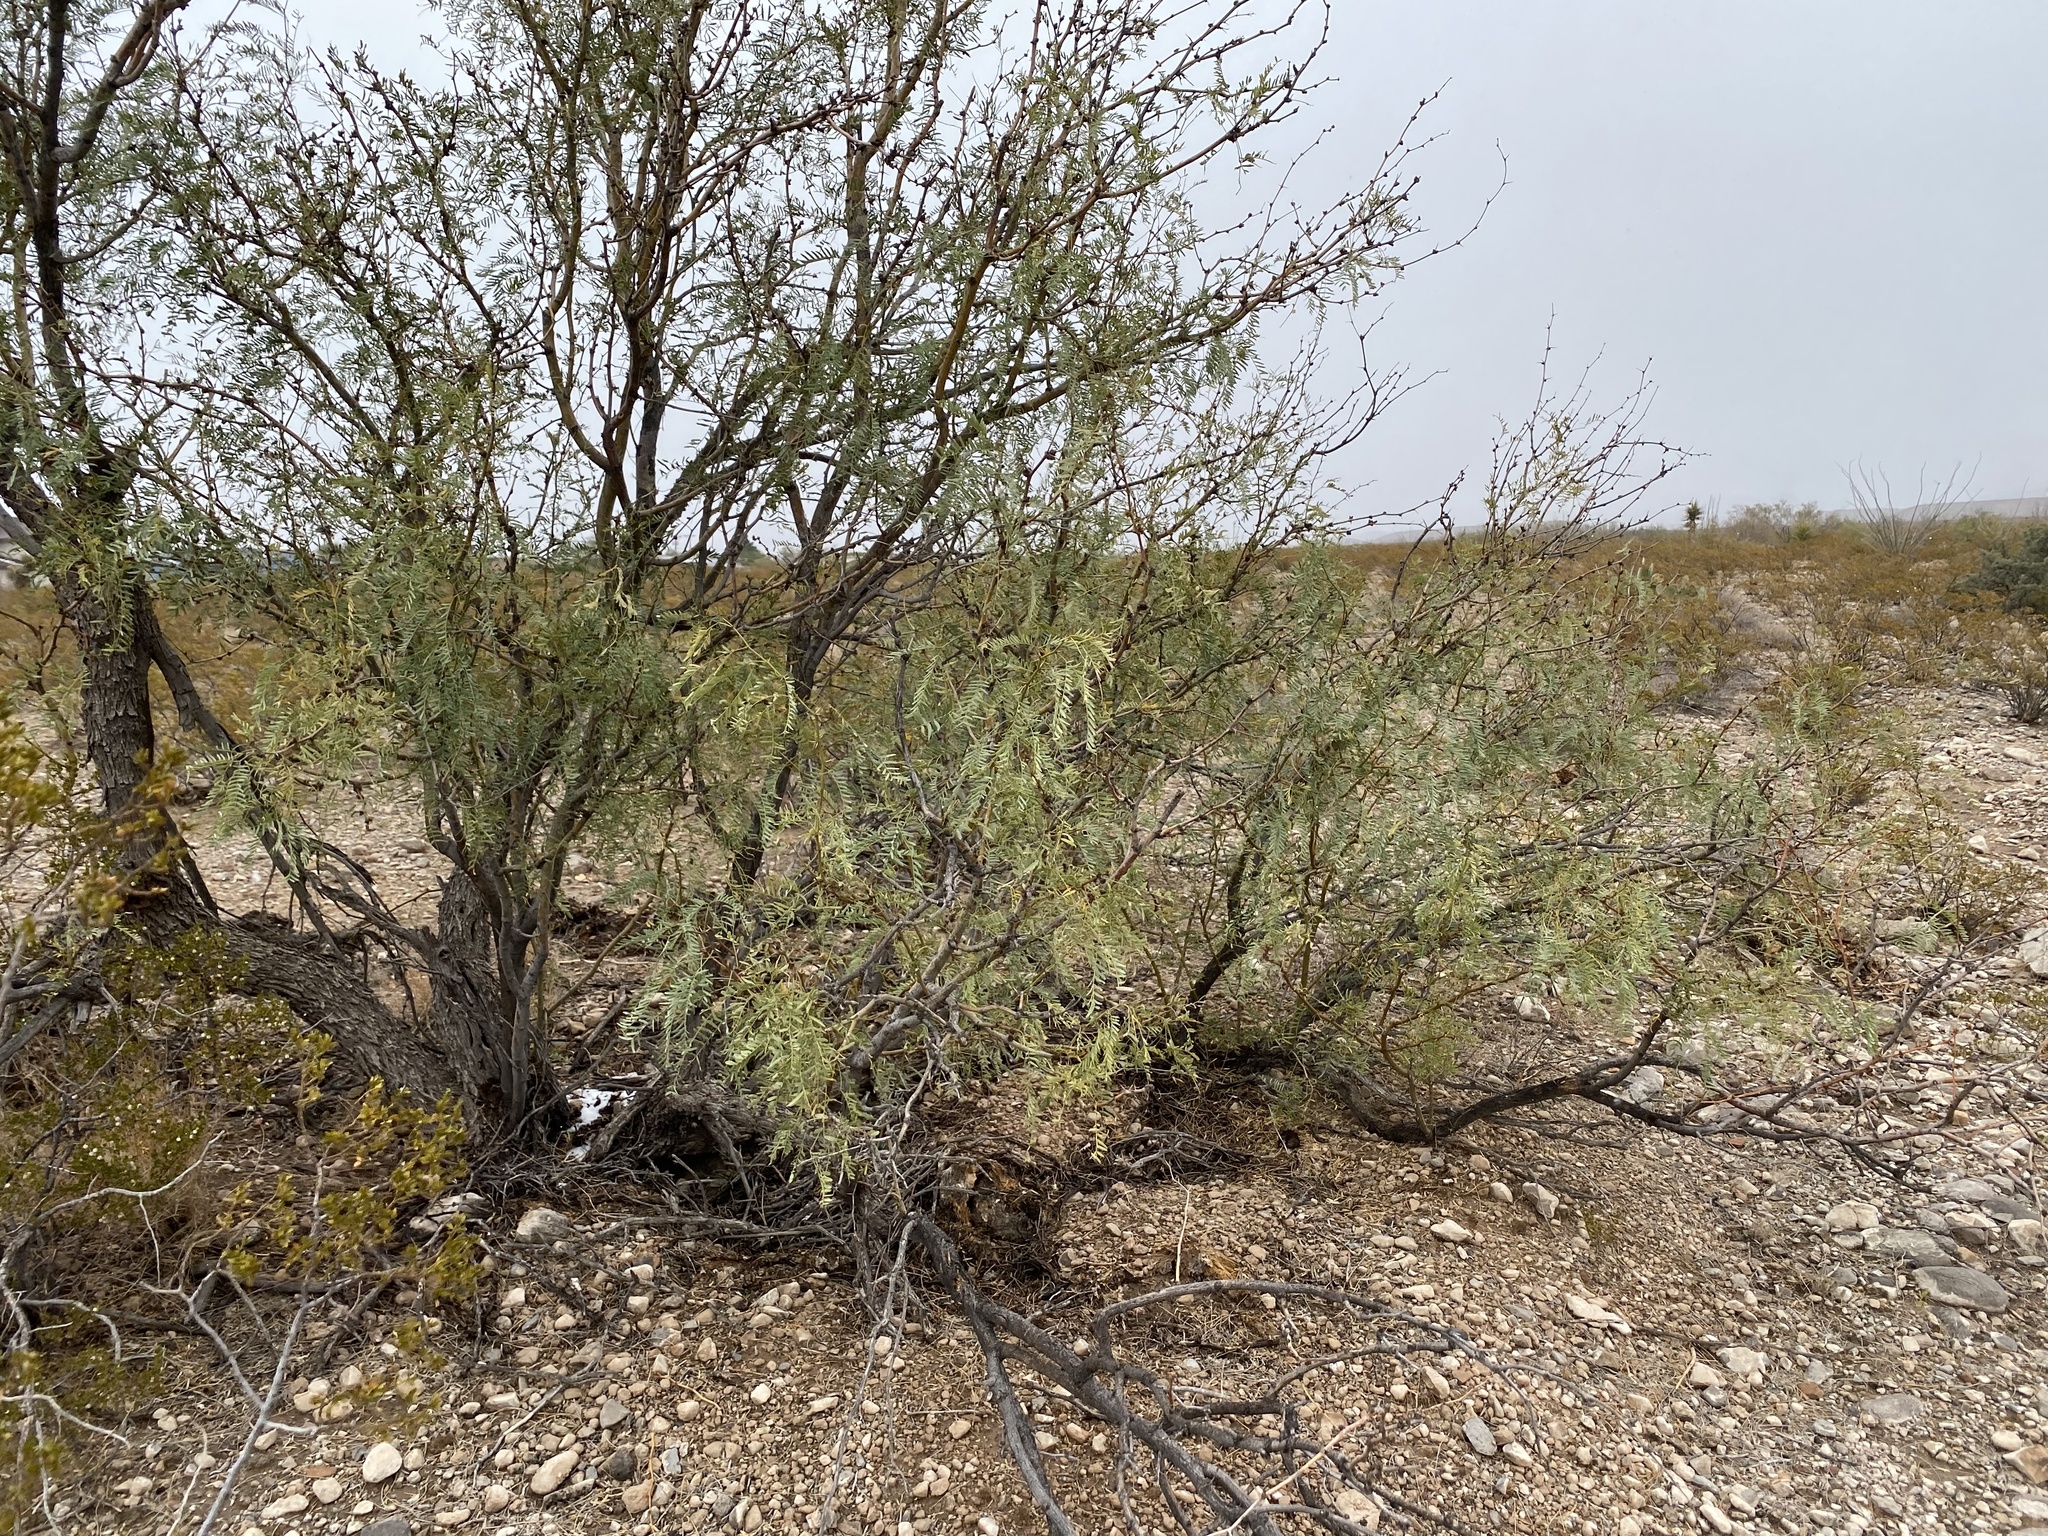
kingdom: Plantae
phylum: Tracheophyta
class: Magnoliopsida
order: Fabales
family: Fabaceae
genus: Prosopis
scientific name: Prosopis glandulosa
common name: Honey mesquite
